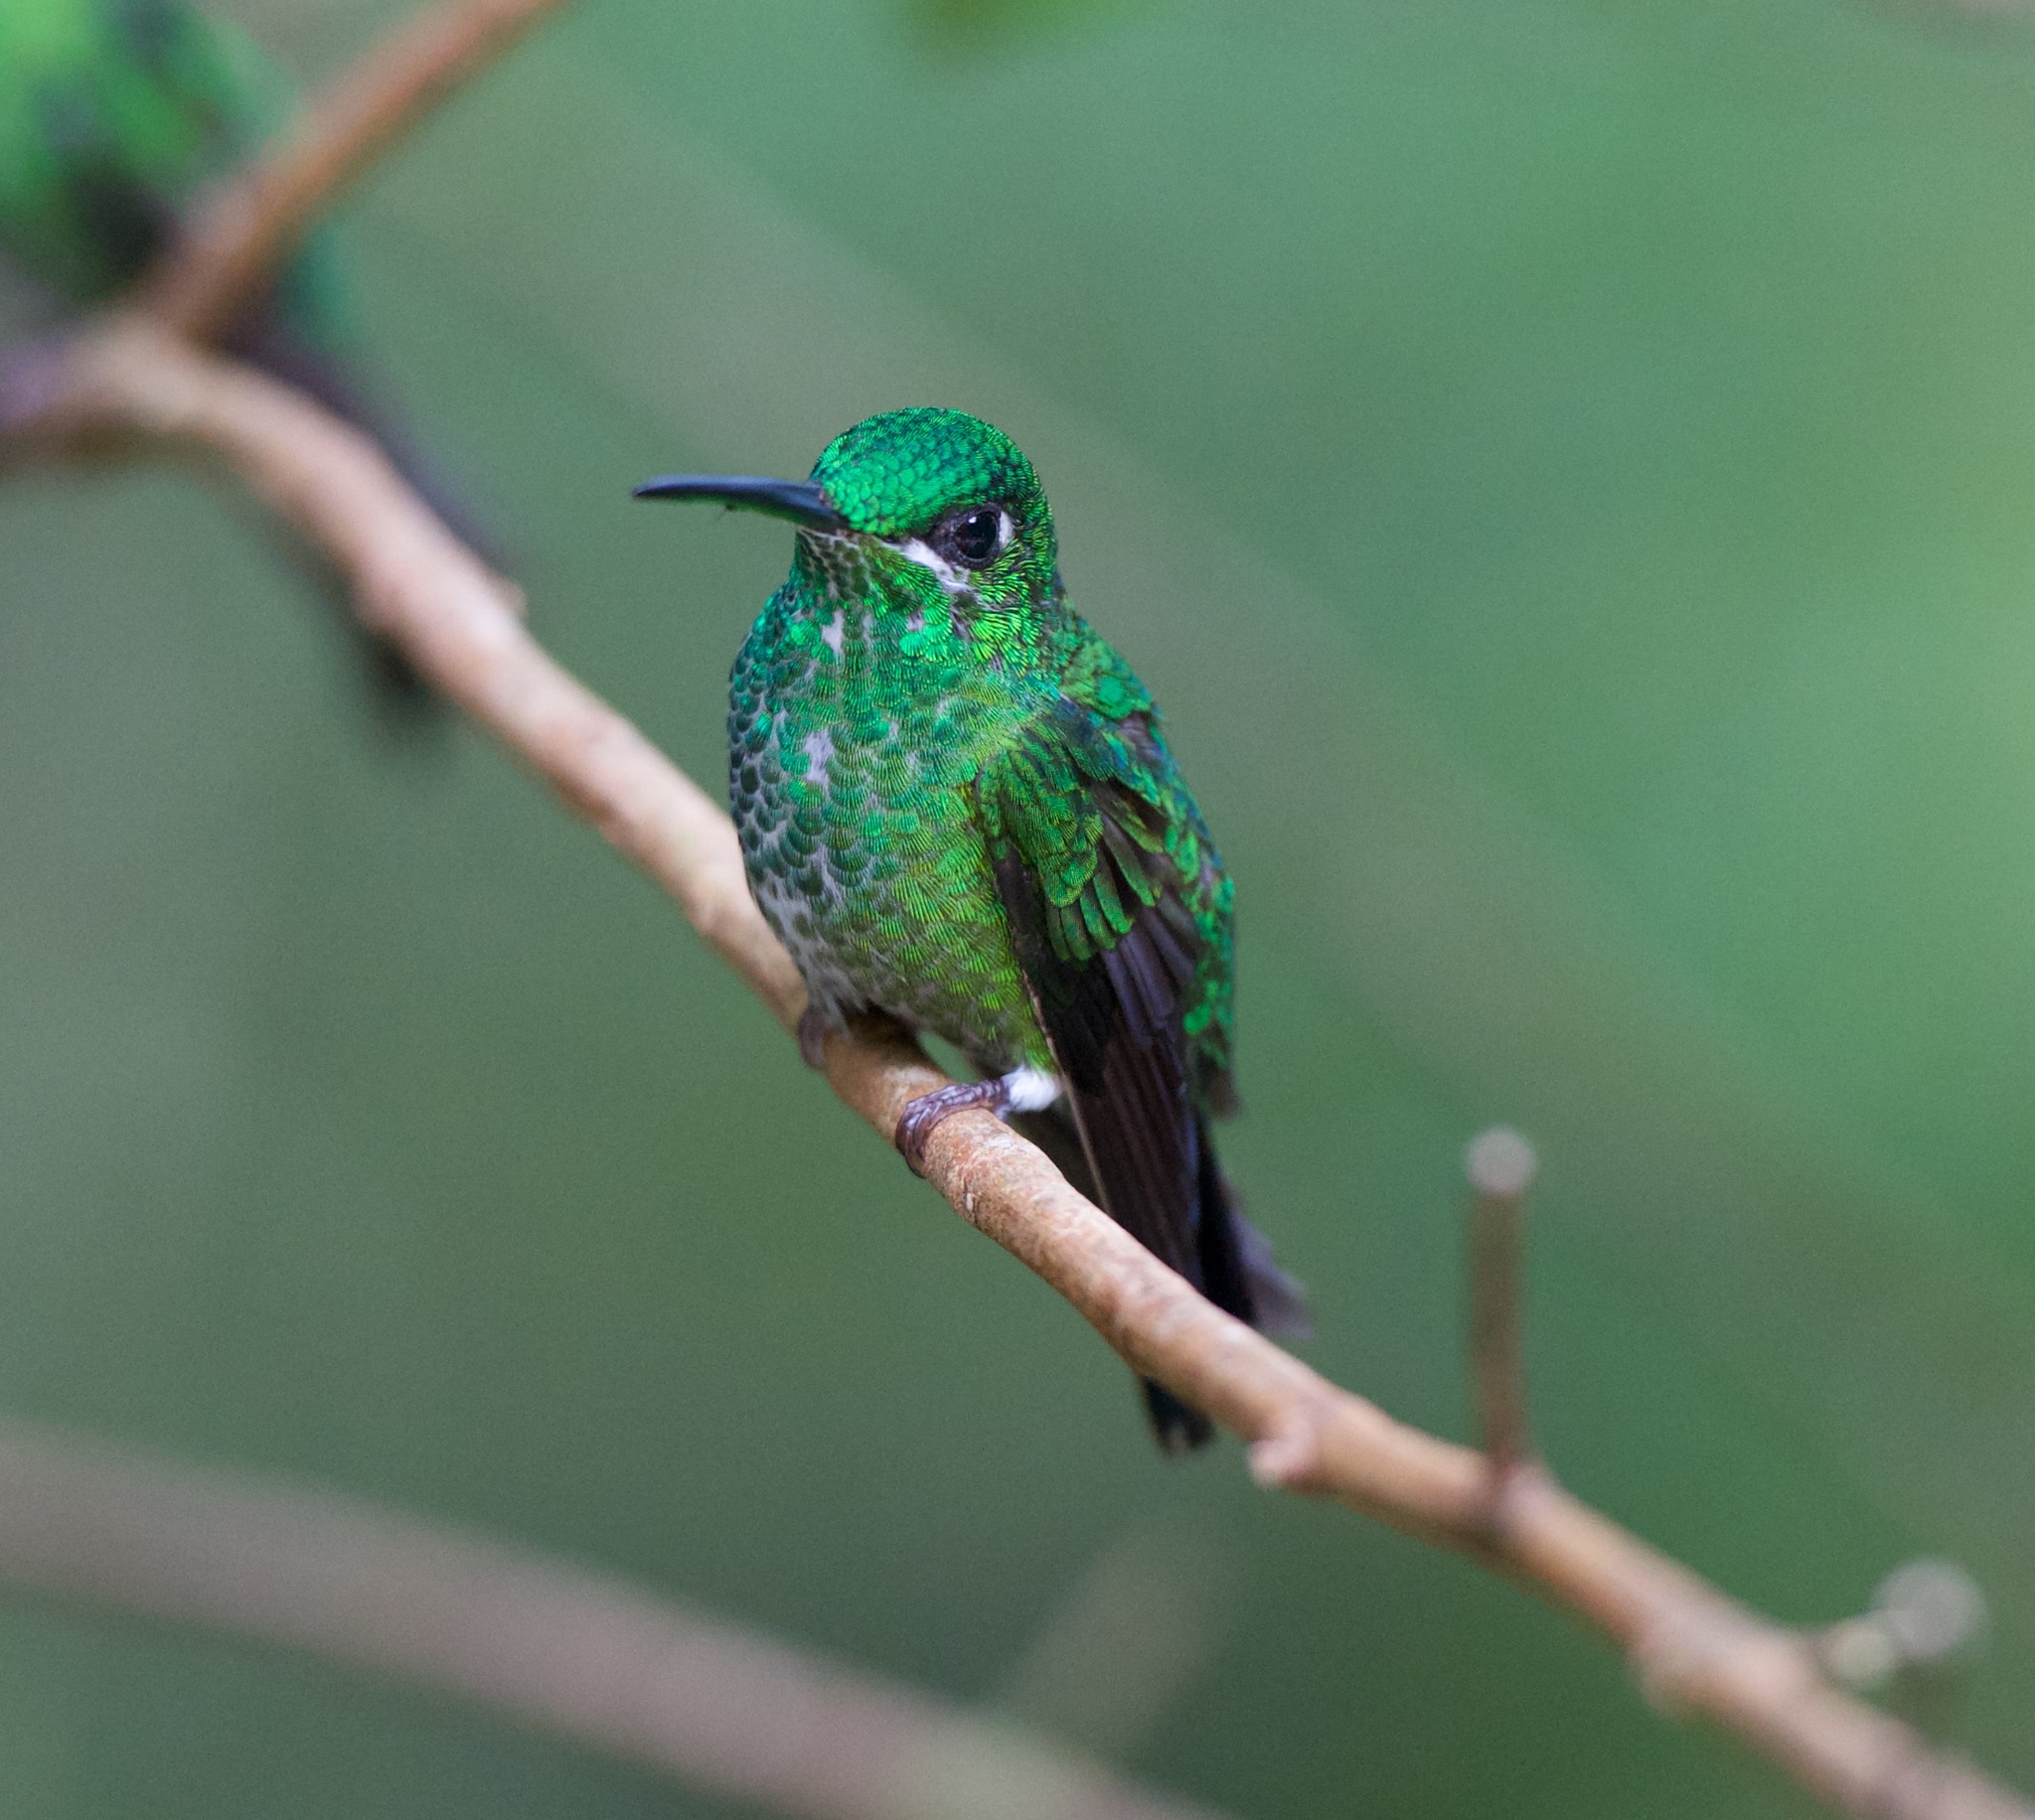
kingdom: Animalia
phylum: Chordata
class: Aves
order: Apodiformes
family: Trochilidae
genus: Heliodoxa
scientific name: Heliodoxa jacula
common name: Green-crowned brilliant
